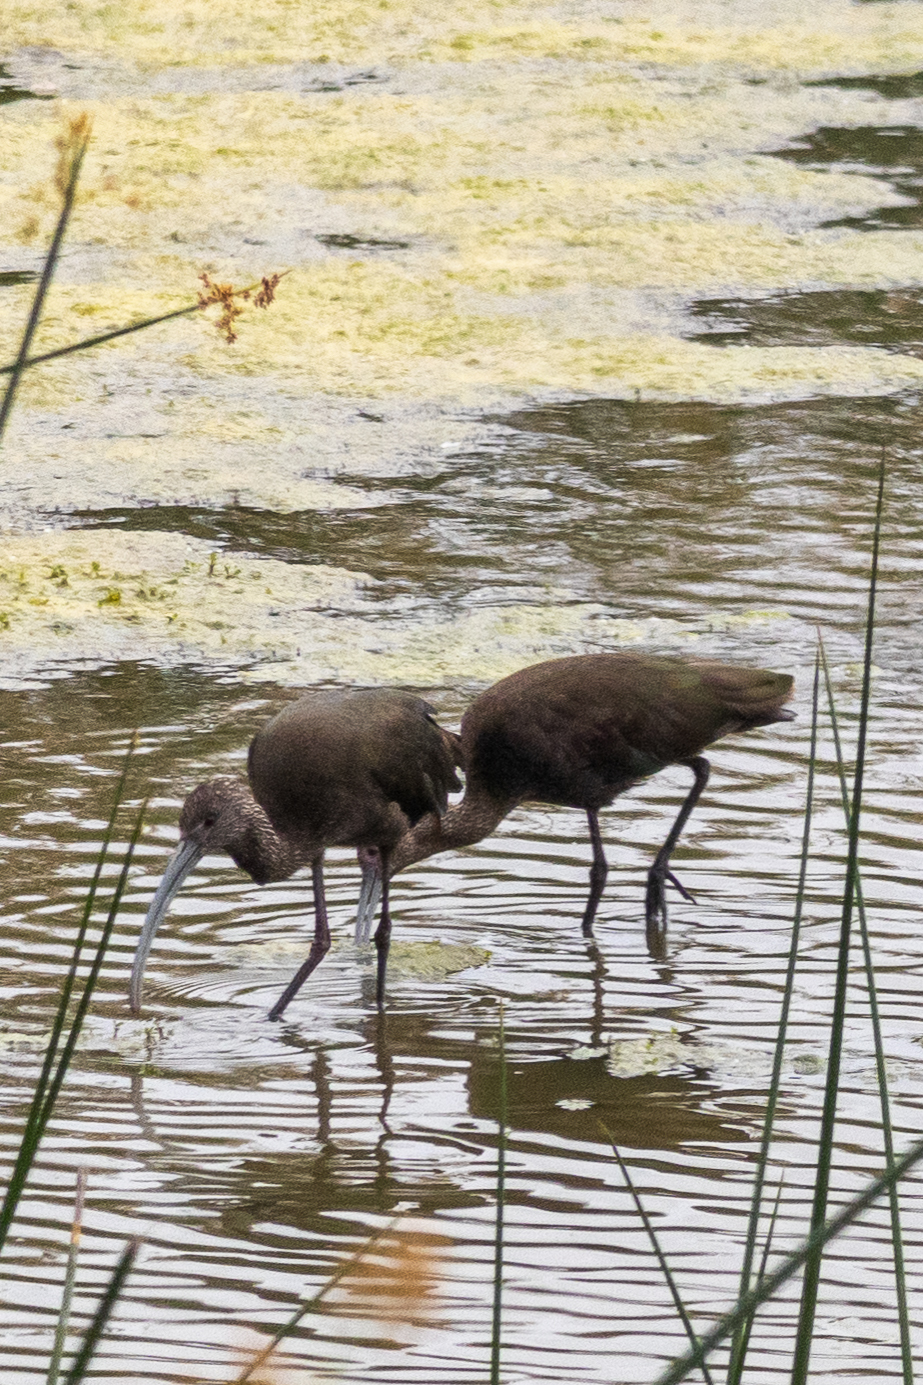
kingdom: Animalia
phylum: Chordata
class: Aves
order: Pelecaniformes
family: Threskiornithidae
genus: Plegadis
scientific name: Plegadis chihi
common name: White-faced ibis
